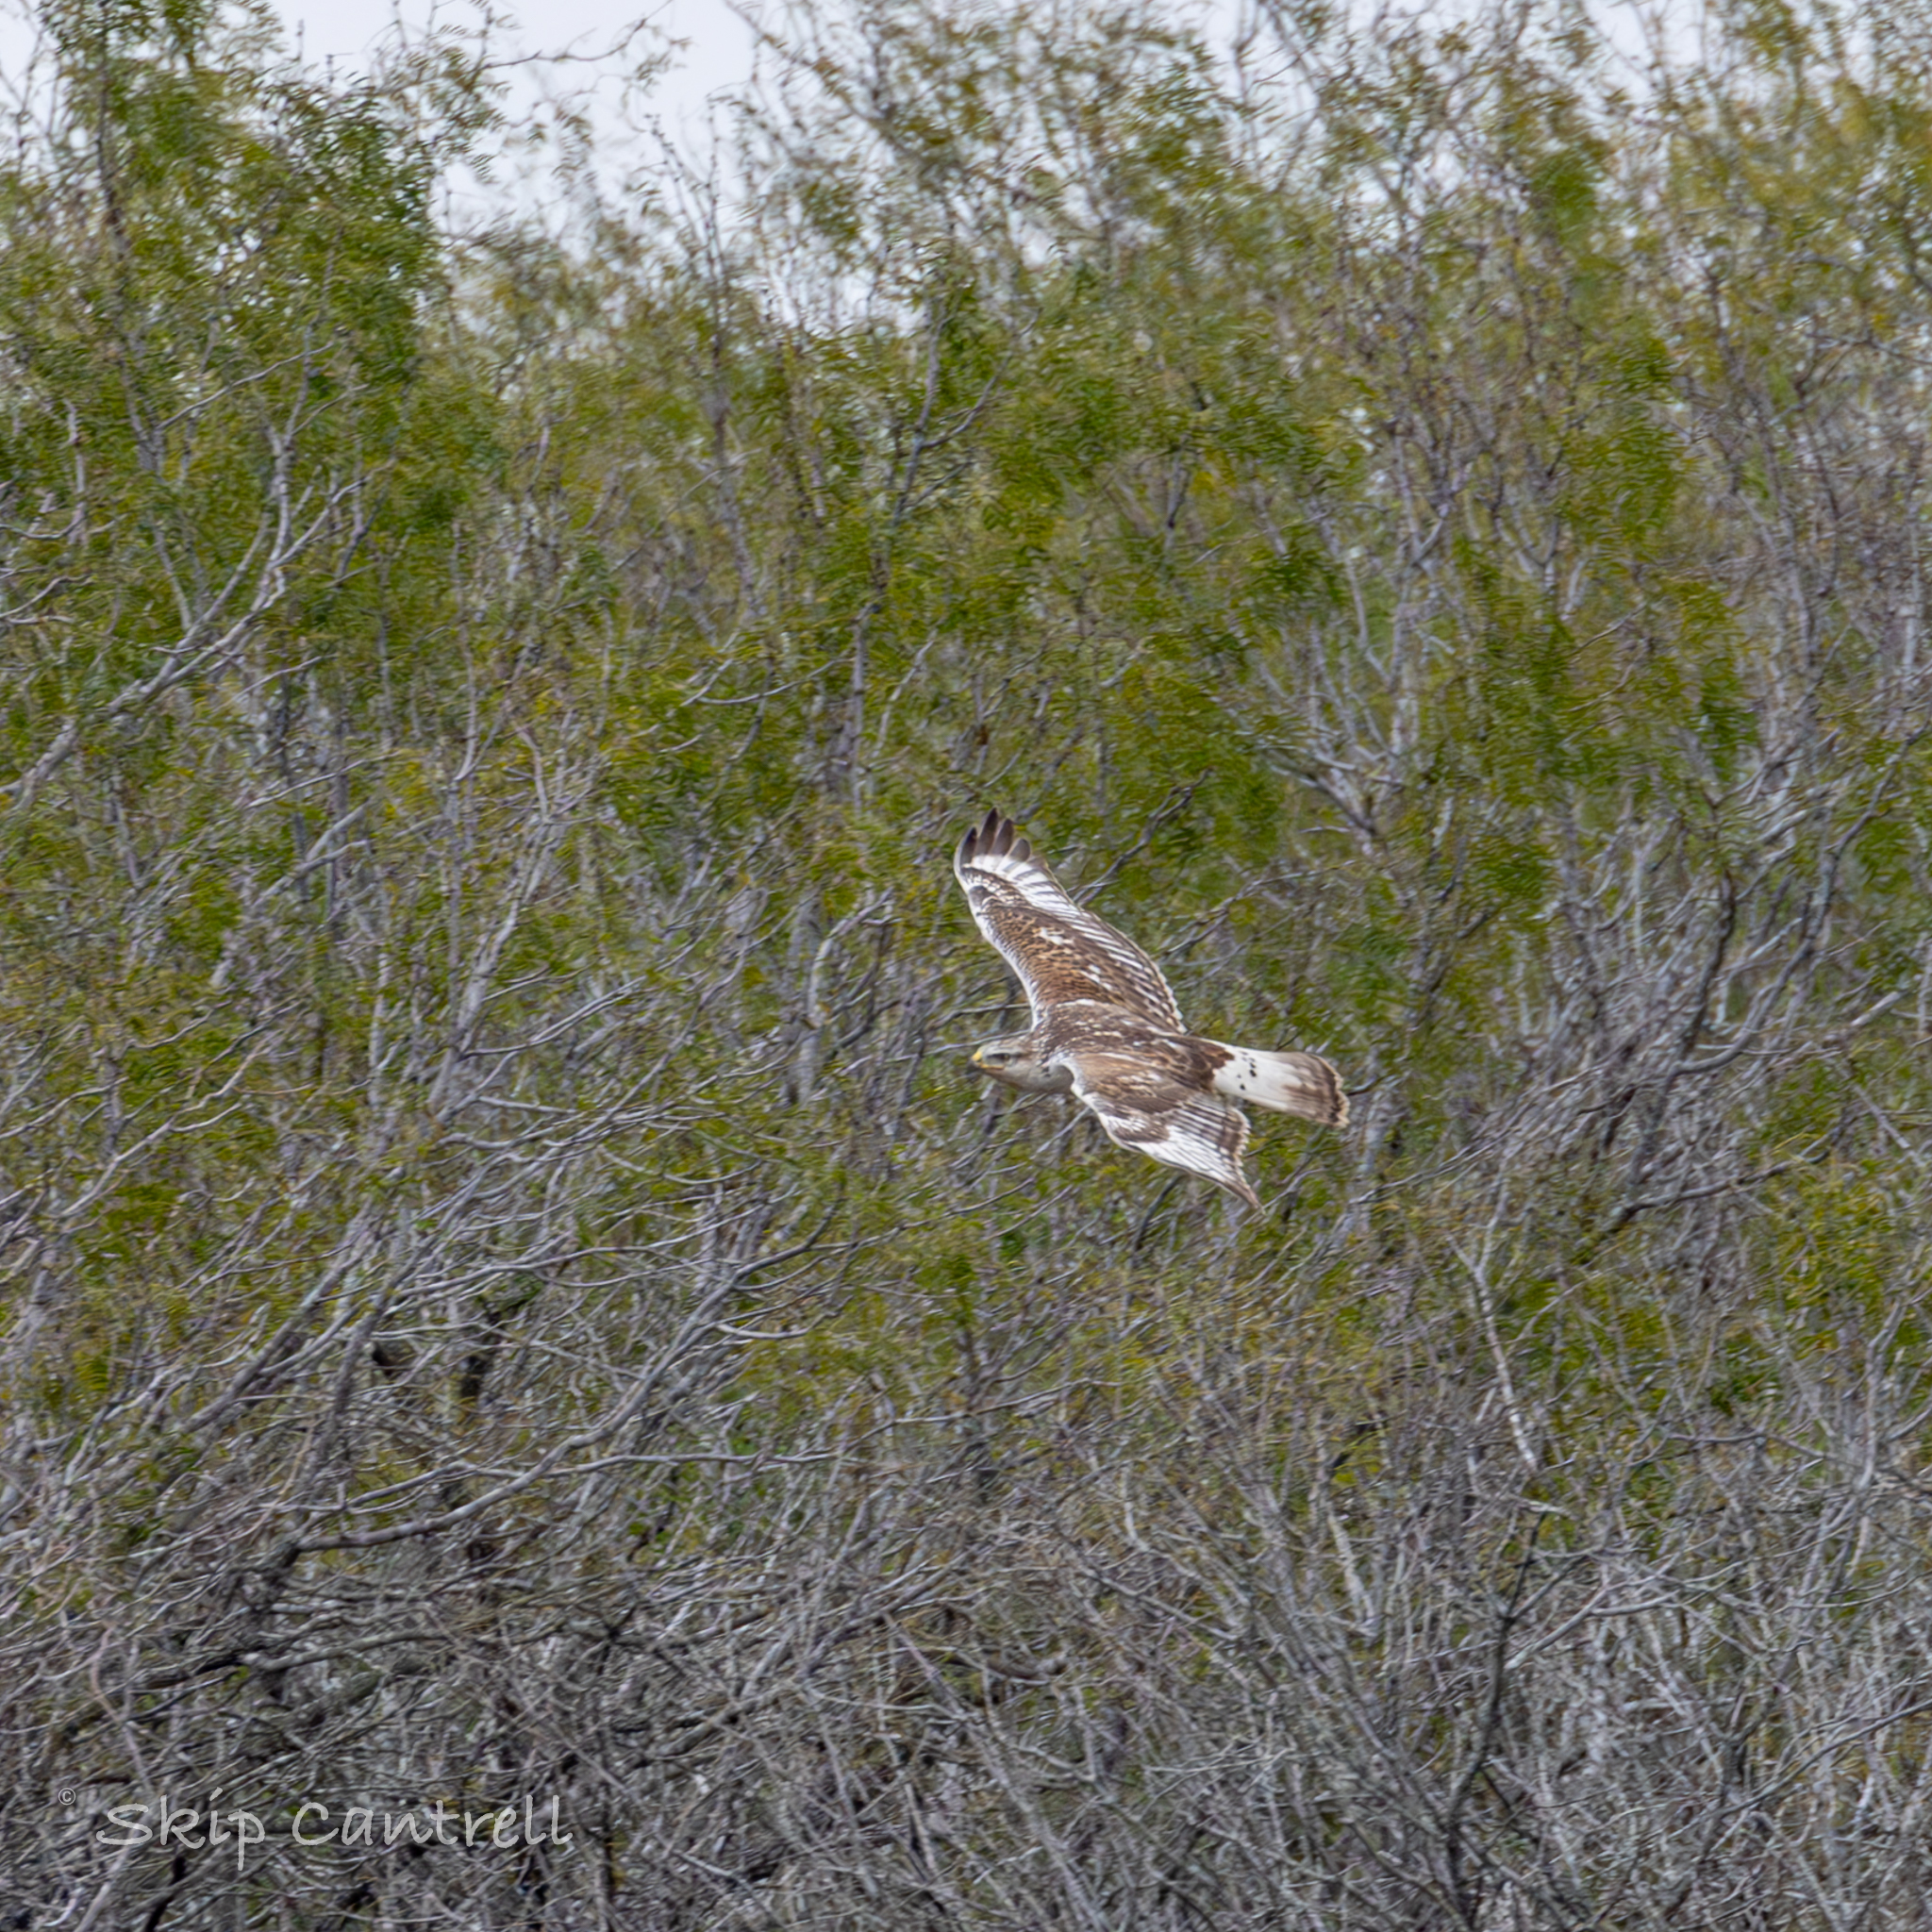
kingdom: Animalia
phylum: Chordata
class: Aves
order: Accipitriformes
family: Accipitridae
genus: Buteo
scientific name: Buteo regalis
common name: Ferruginous hawk
